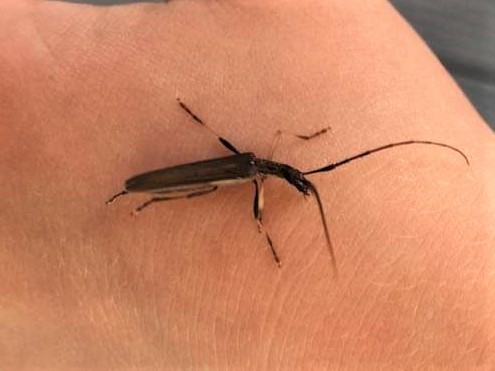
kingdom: Animalia
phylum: Arthropoda
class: Insecta
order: Coleoptera
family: Cerambycidae
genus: Stenopotes
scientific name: Stenopotes pallidus
